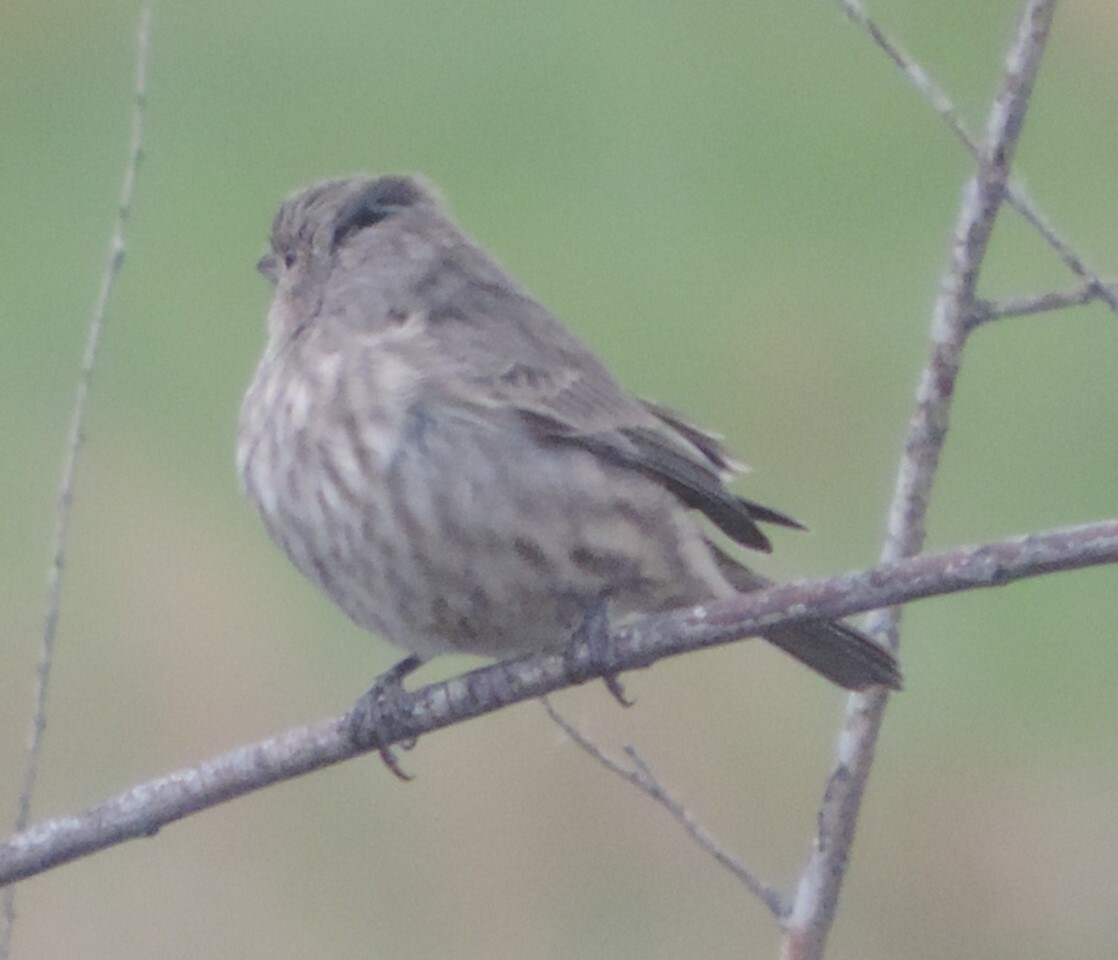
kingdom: Animalia
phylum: Chordata
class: Aves
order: Passeriformes
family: Fringillidae
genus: Haemorhous
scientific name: Haemorhous mexicanus
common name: House finch
